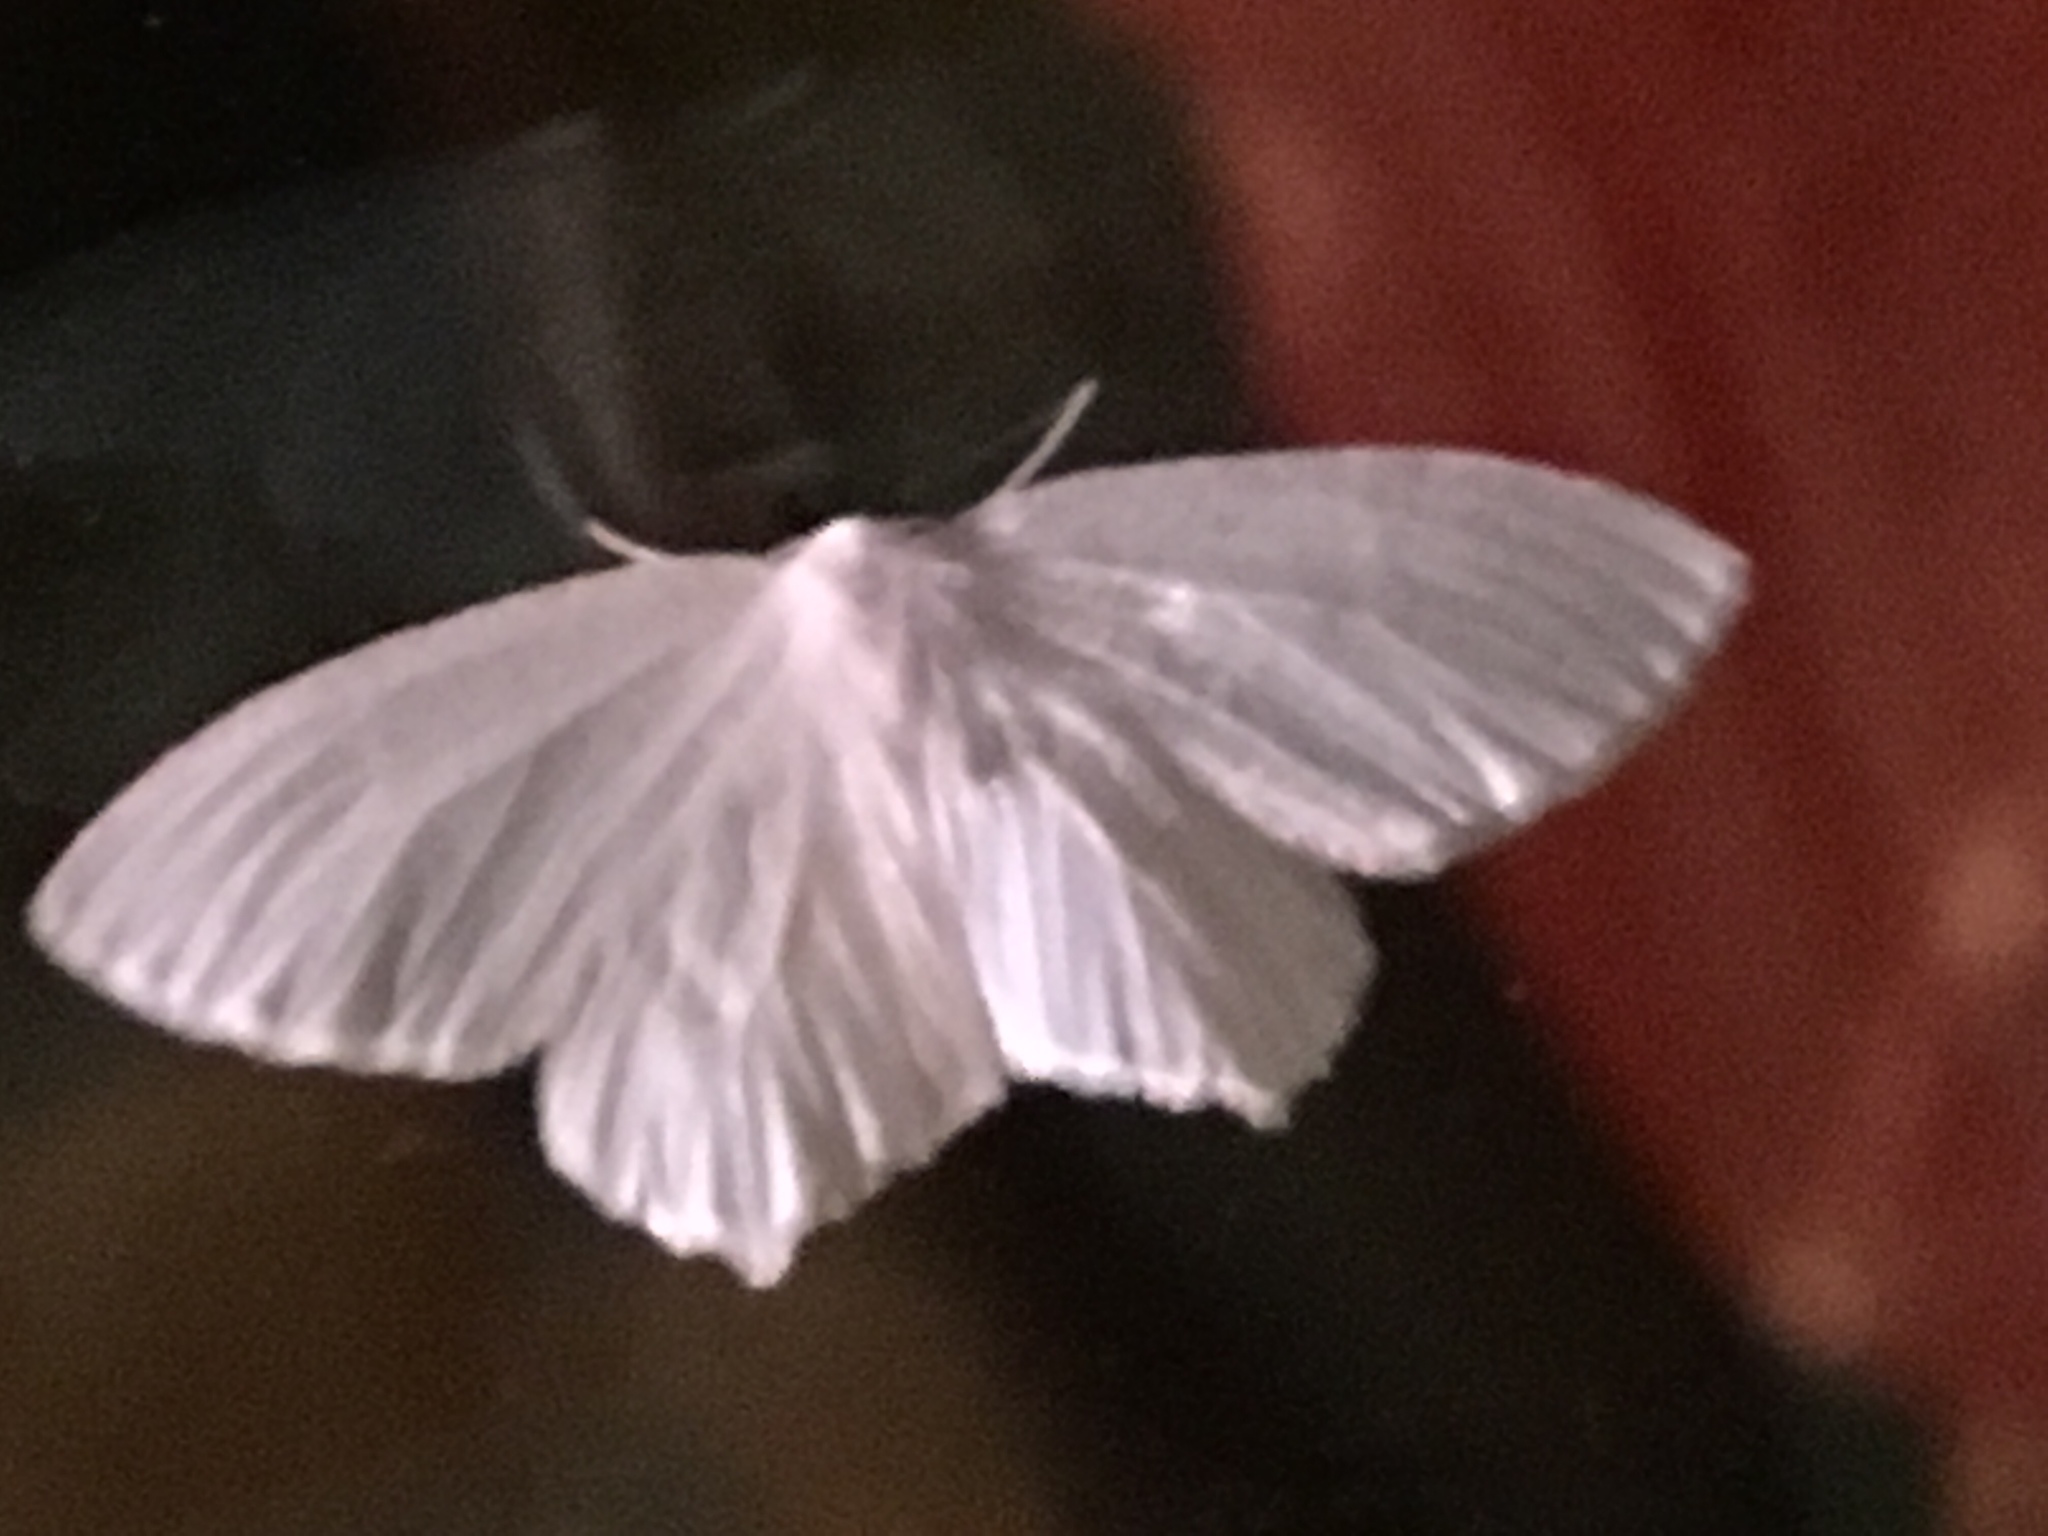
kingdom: Animalia
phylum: Arthropoda
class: Insecta
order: Lepidoptera
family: Geometridae
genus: Eugonobapta
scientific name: Eugonobapta nivosaria
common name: Snowy geometer
